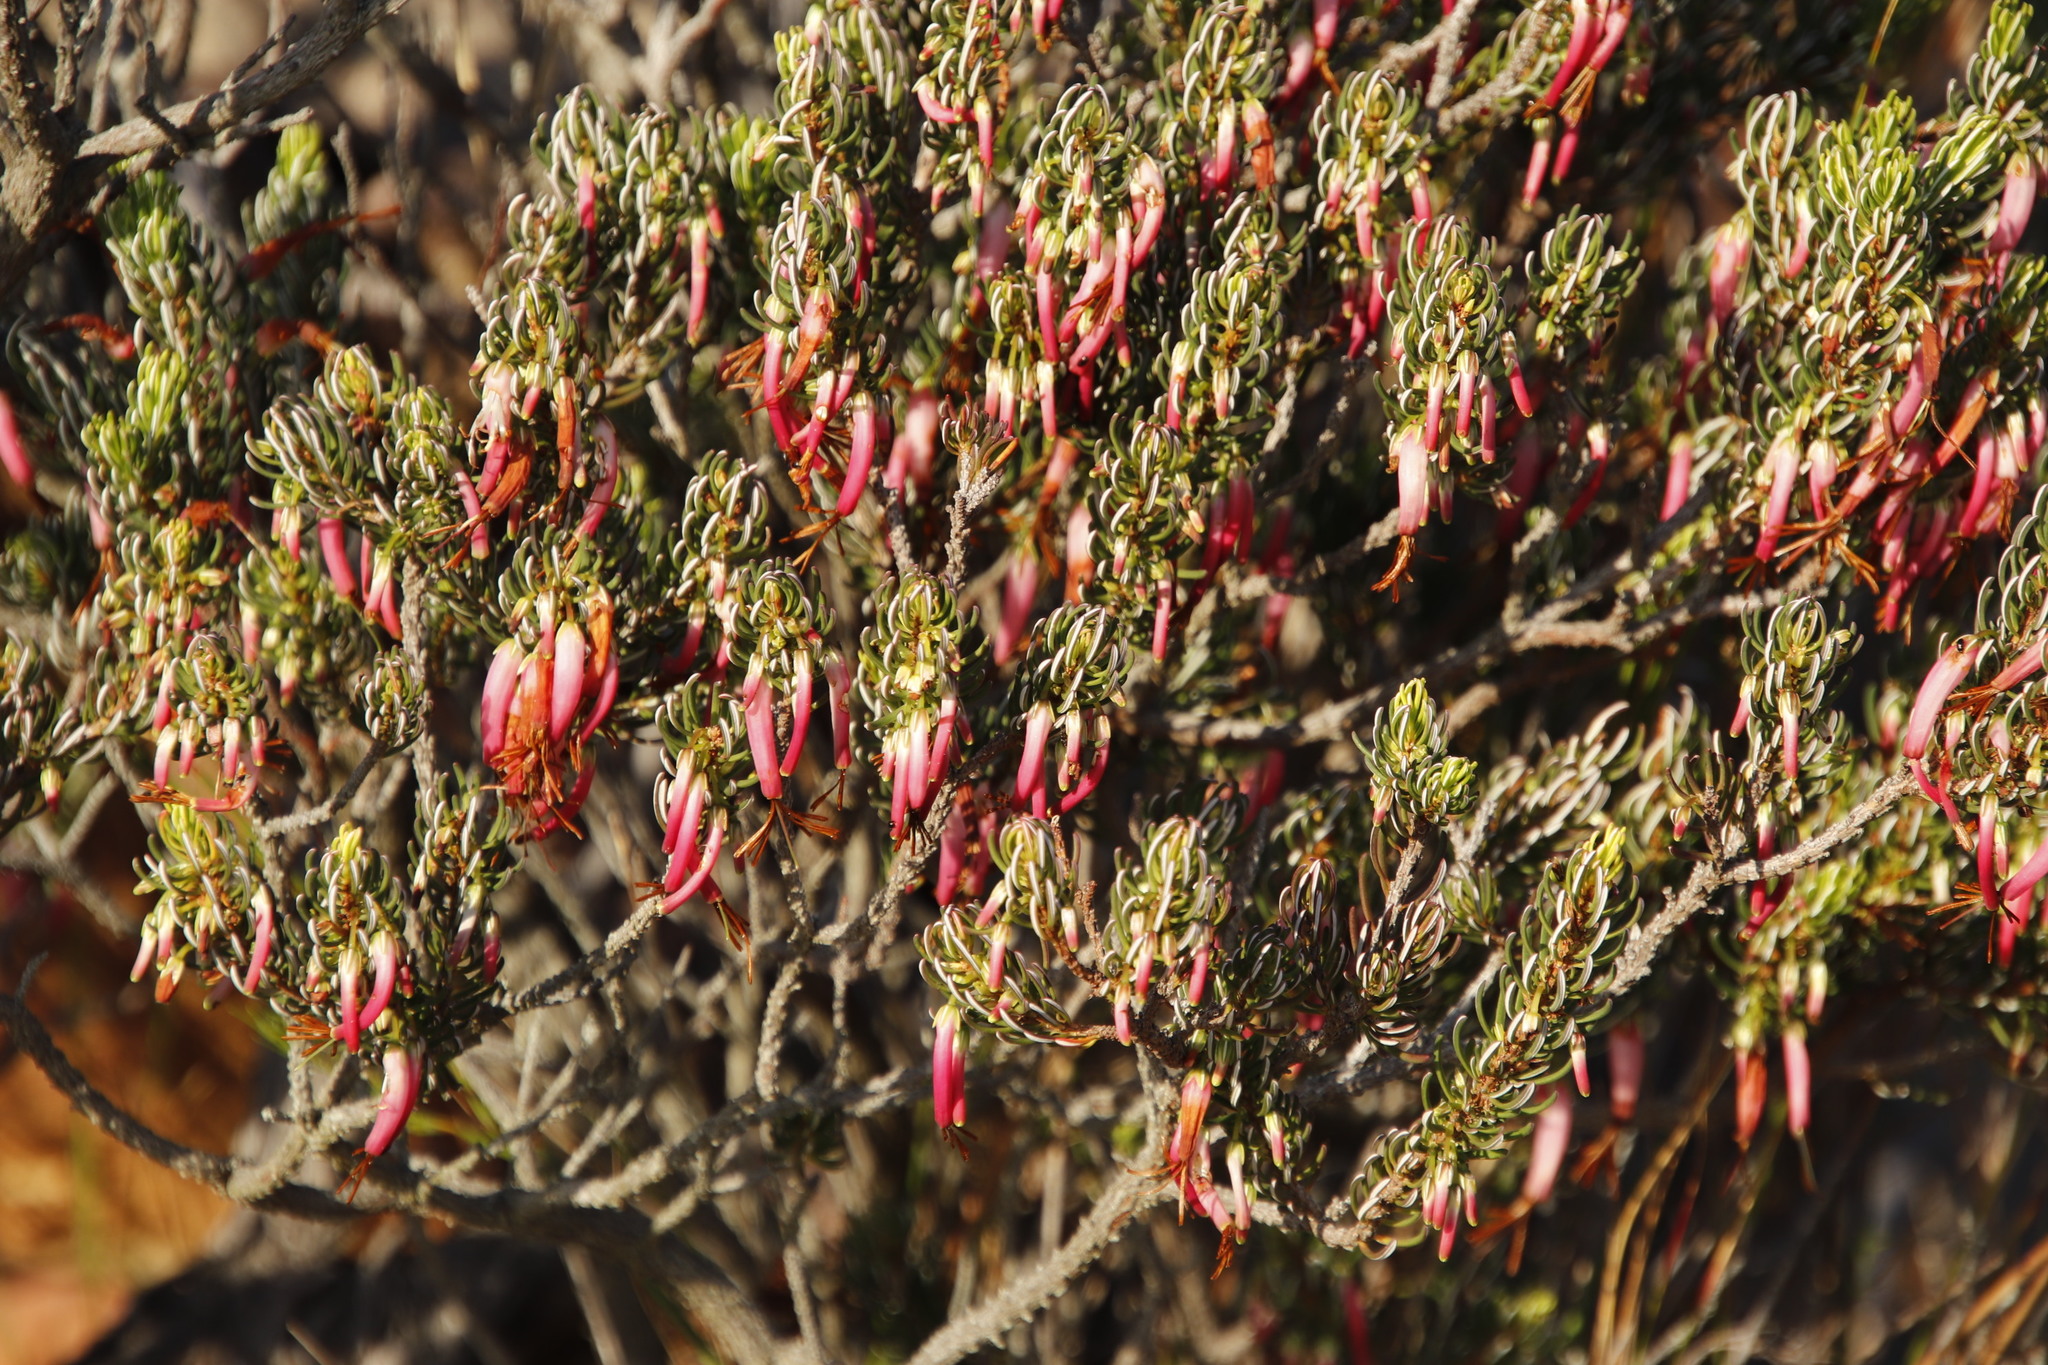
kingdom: Plantae
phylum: Tracheophyta
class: Magnoliopsida
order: Ericales
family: Ericaceae
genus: Erica
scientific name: Erica plukenetii
